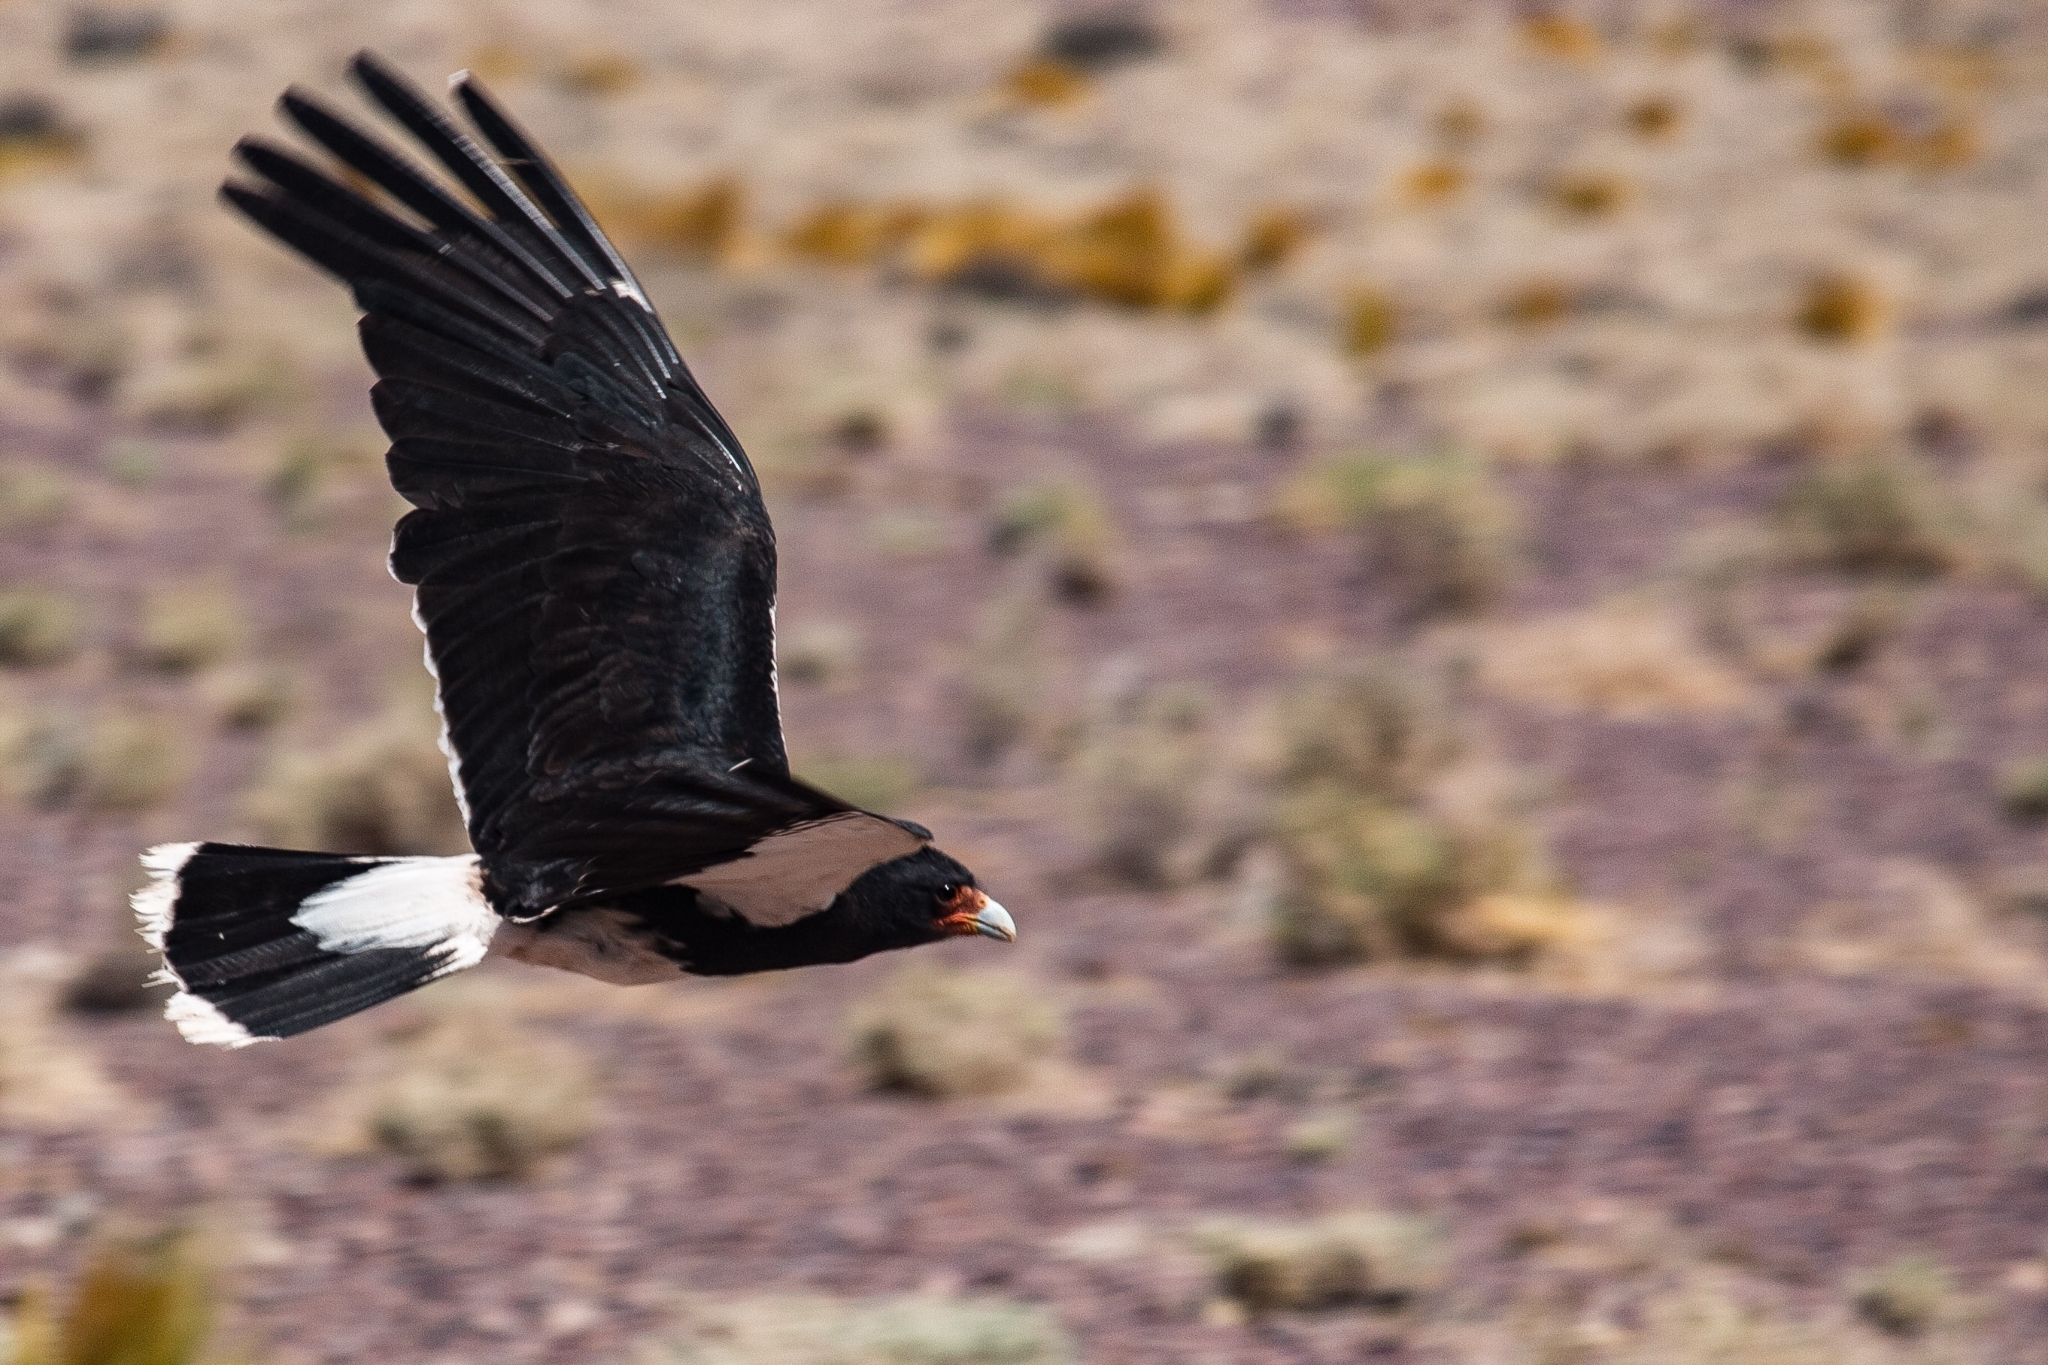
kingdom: Animalia
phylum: Chordata
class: Aves
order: Falconiformes
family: Falconidae
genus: Daptrius
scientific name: Daptrius
